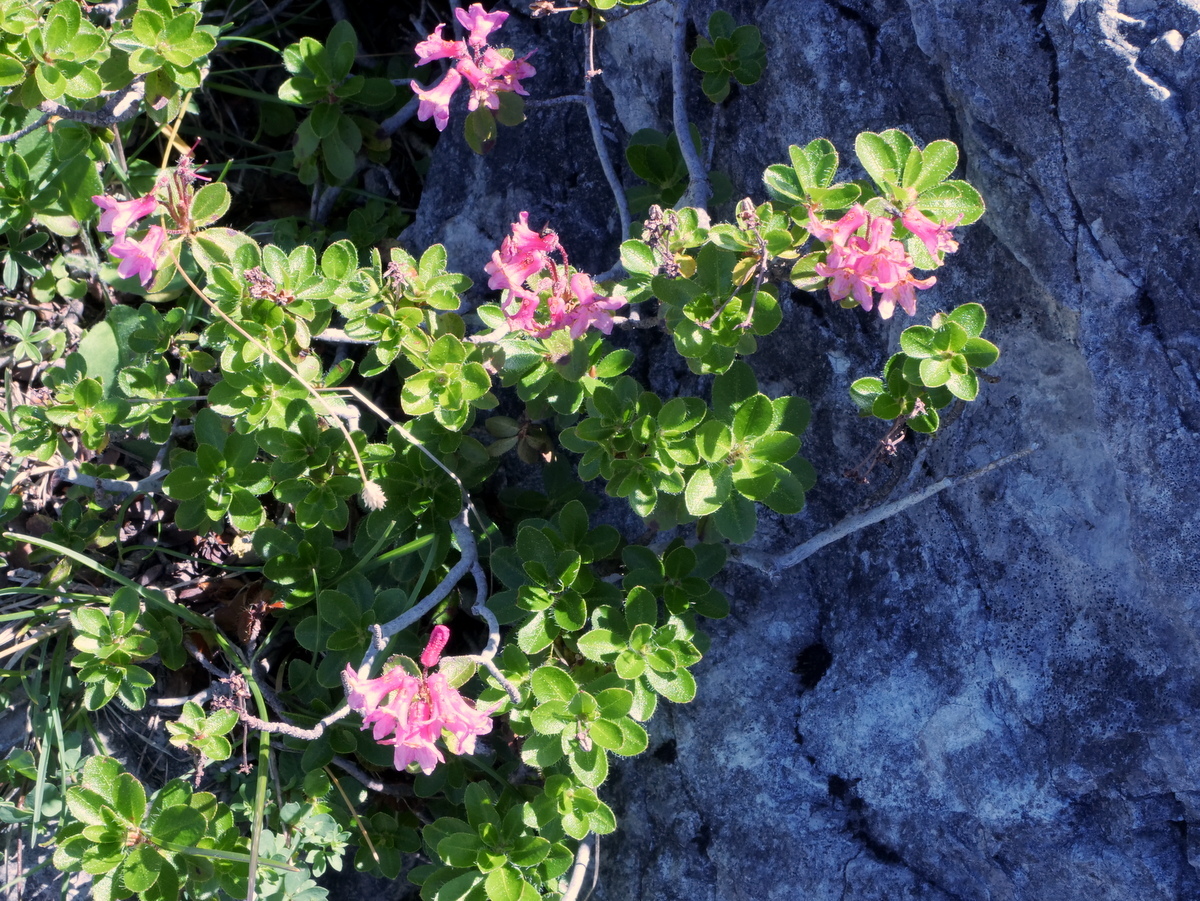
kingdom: Plantae
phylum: Tracheophyta
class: Magnoliopsida
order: Ericales
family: Ericaceae
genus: Rhododendron
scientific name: Rhododendron hirsutum
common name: Hairy alpenrose
